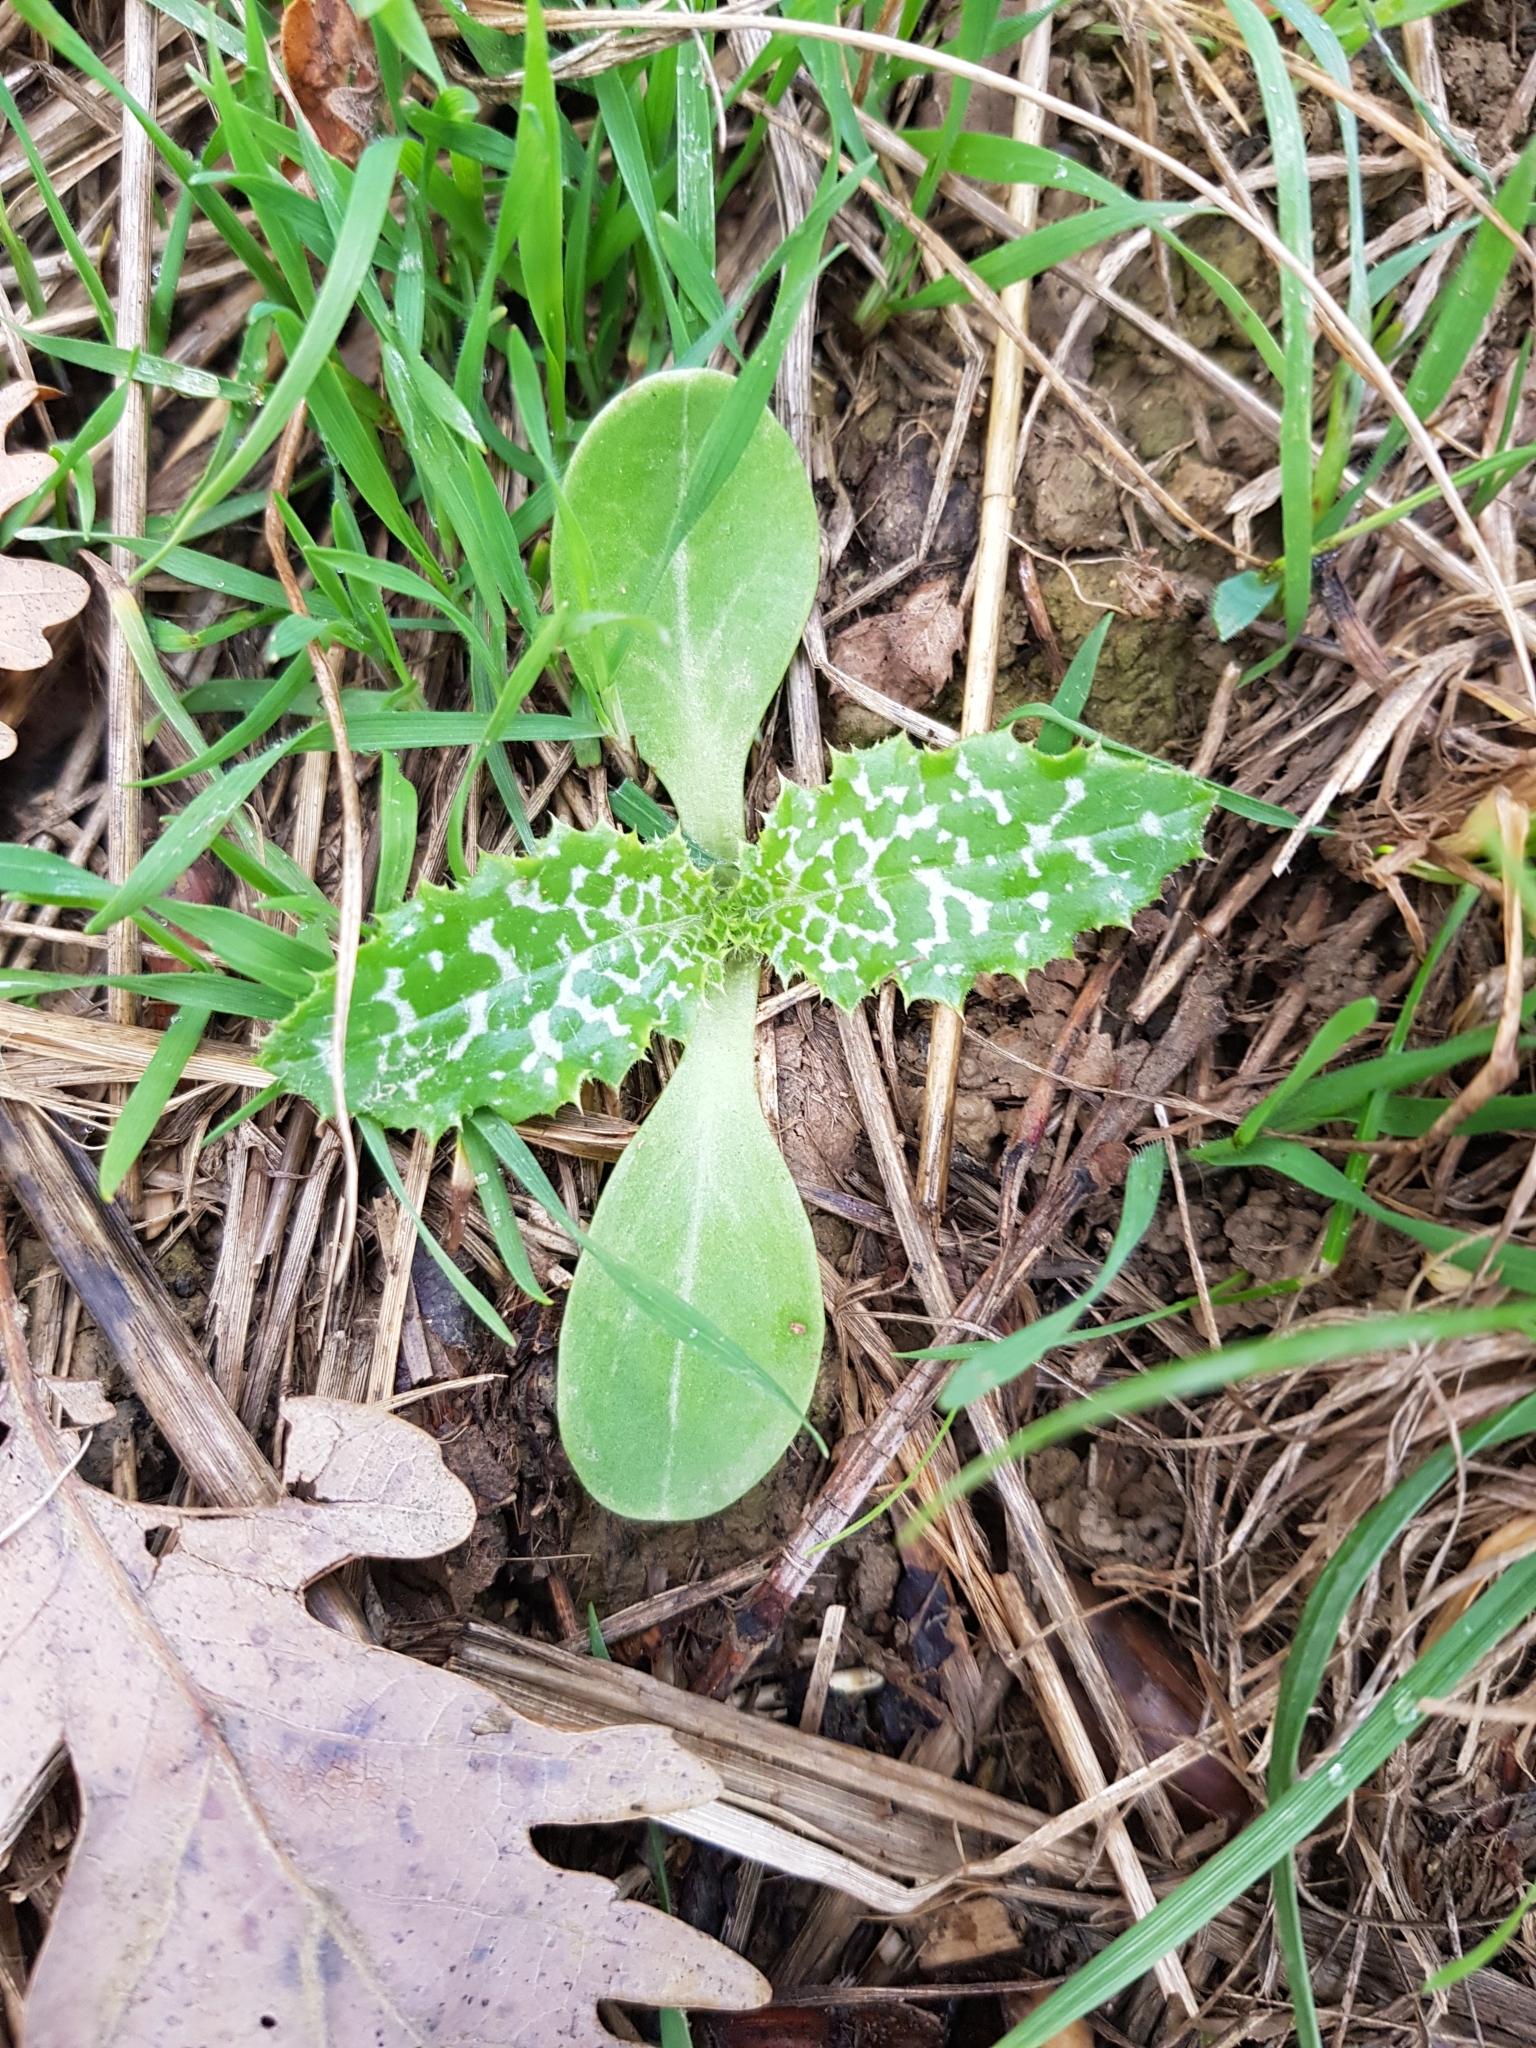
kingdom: Plantae
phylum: Tracheophyta
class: Magnoliopsida
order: Asterales
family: Asteraceae
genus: Silybum
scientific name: Silybum marianum
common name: Milk thistle
